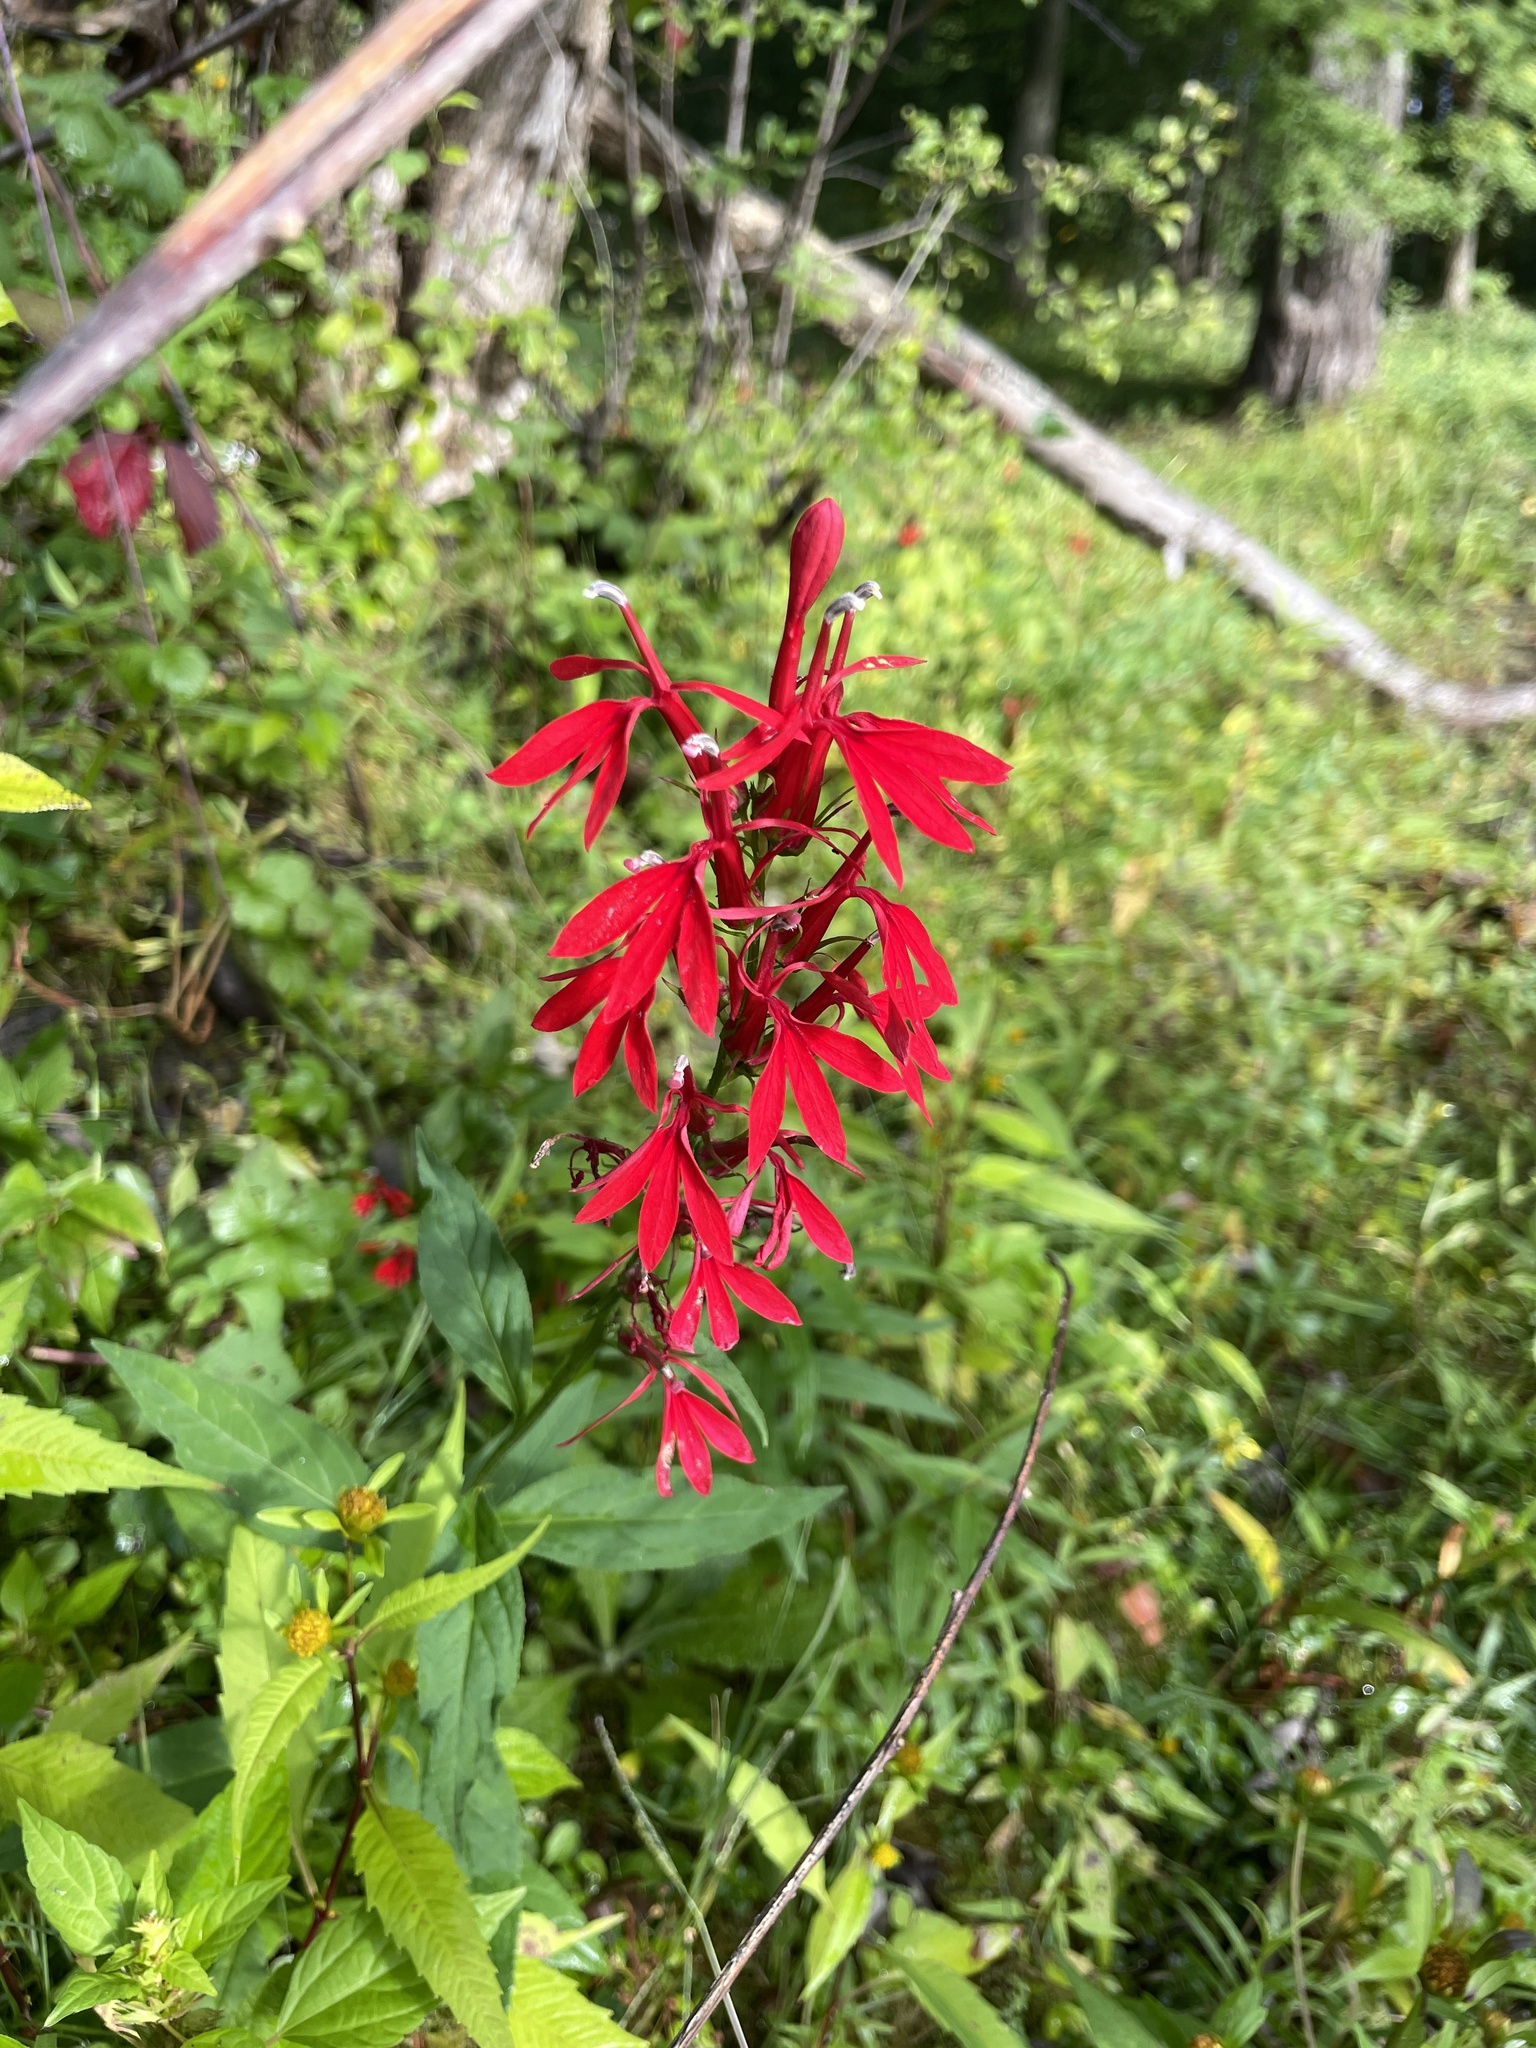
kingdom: Plantae
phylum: Tracheophyta
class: Magnoliopsida
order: Asterales
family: Campanulaceae
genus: Lobelia
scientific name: Lobelia cardinalis
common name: Cardinal flower
